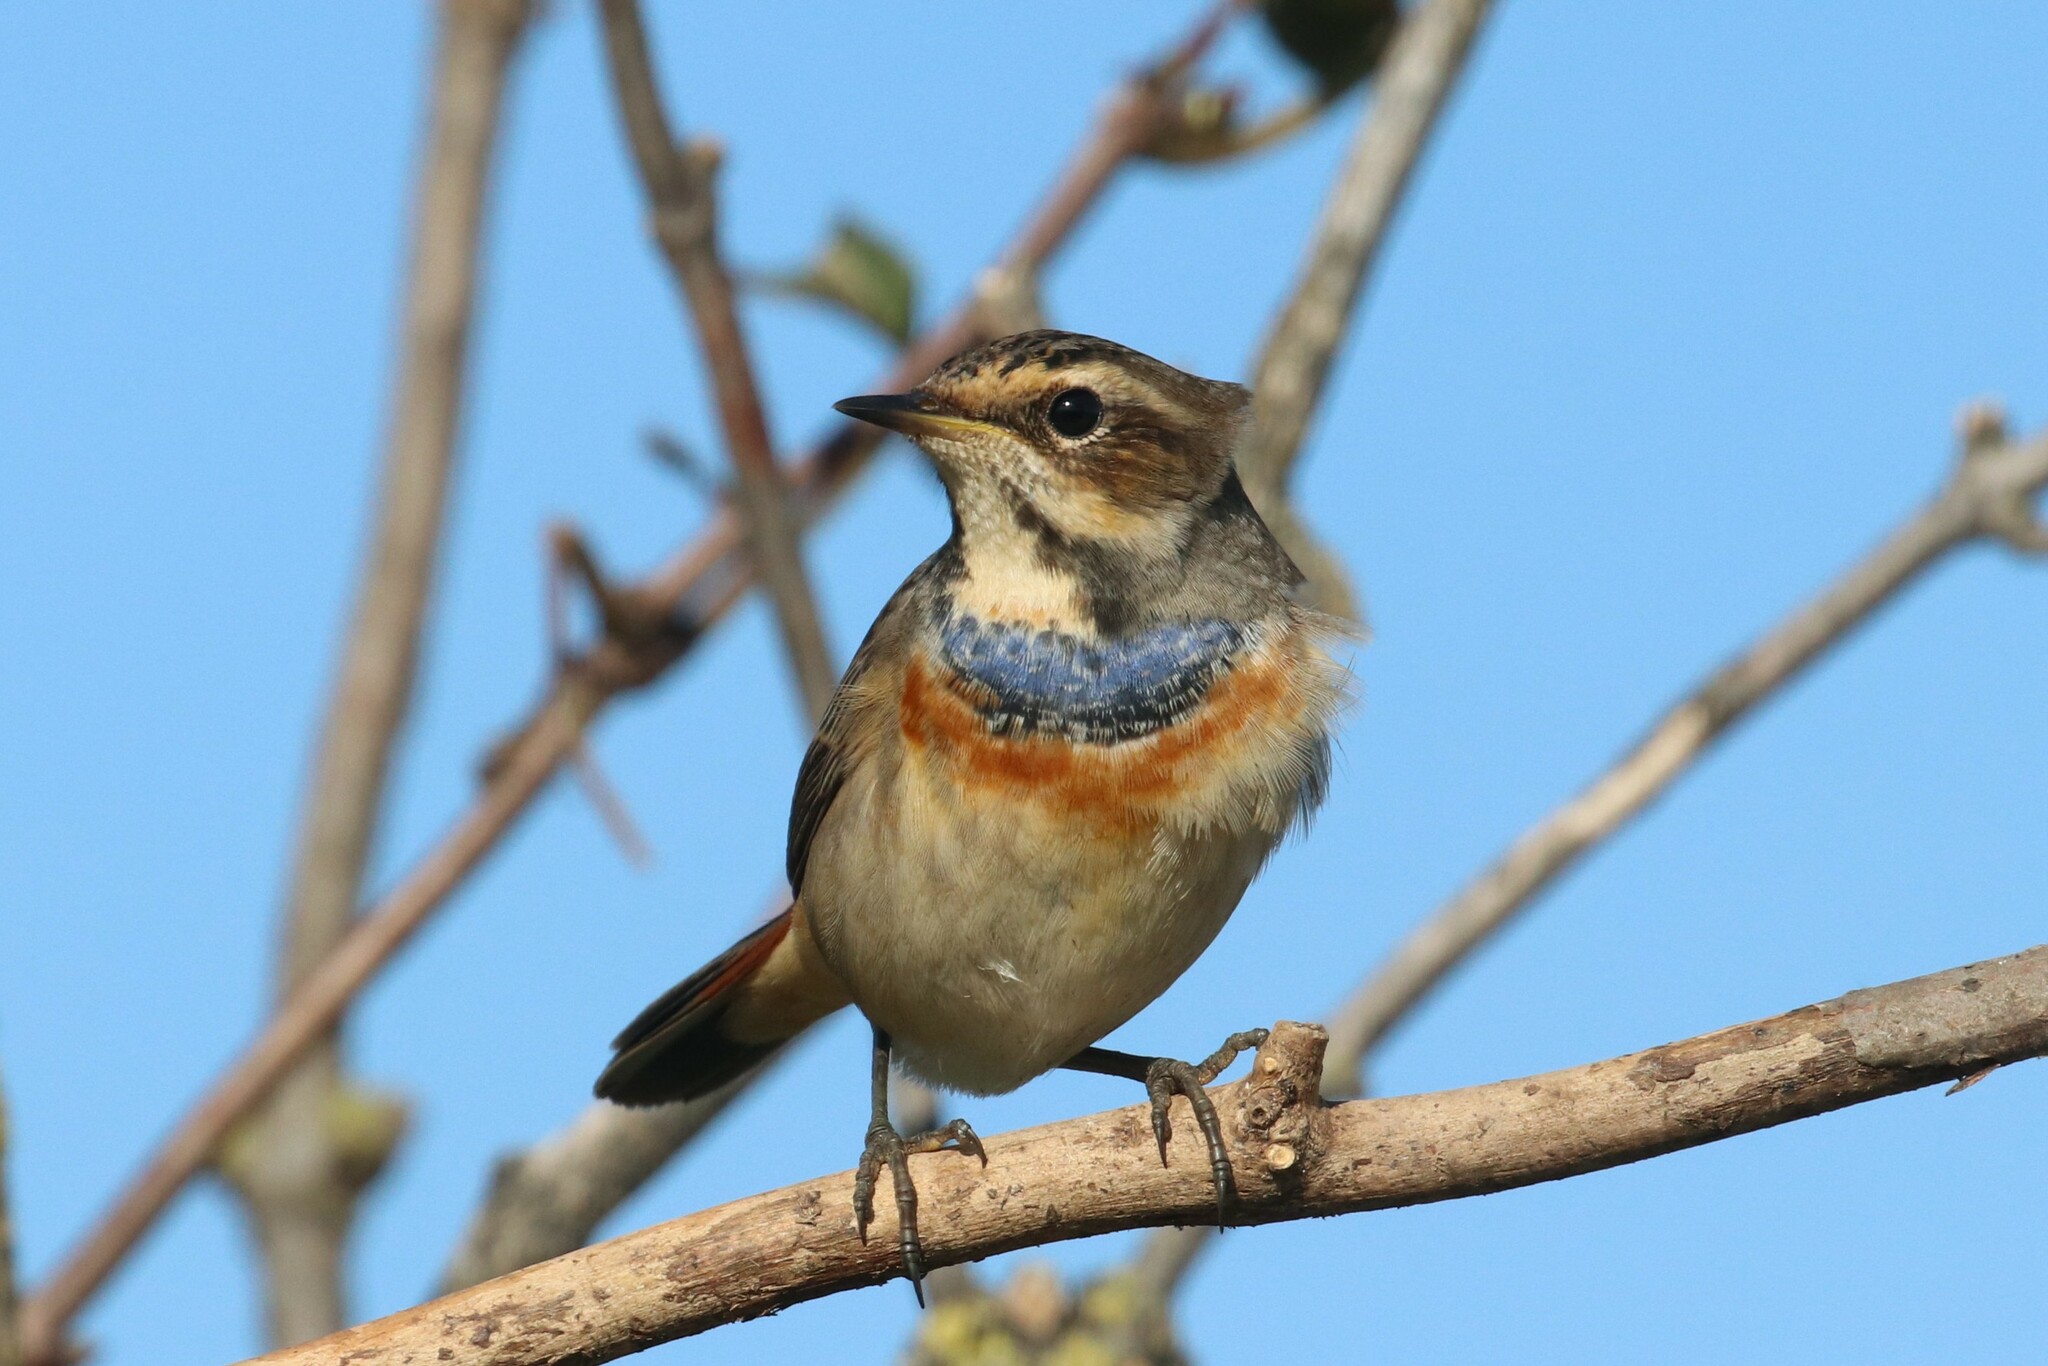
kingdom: Animalia
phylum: Chordata
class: Aves
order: Passeriformes
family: Muscicapidae
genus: Luscinia
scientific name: Luscinia svecica
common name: Bluethroat
